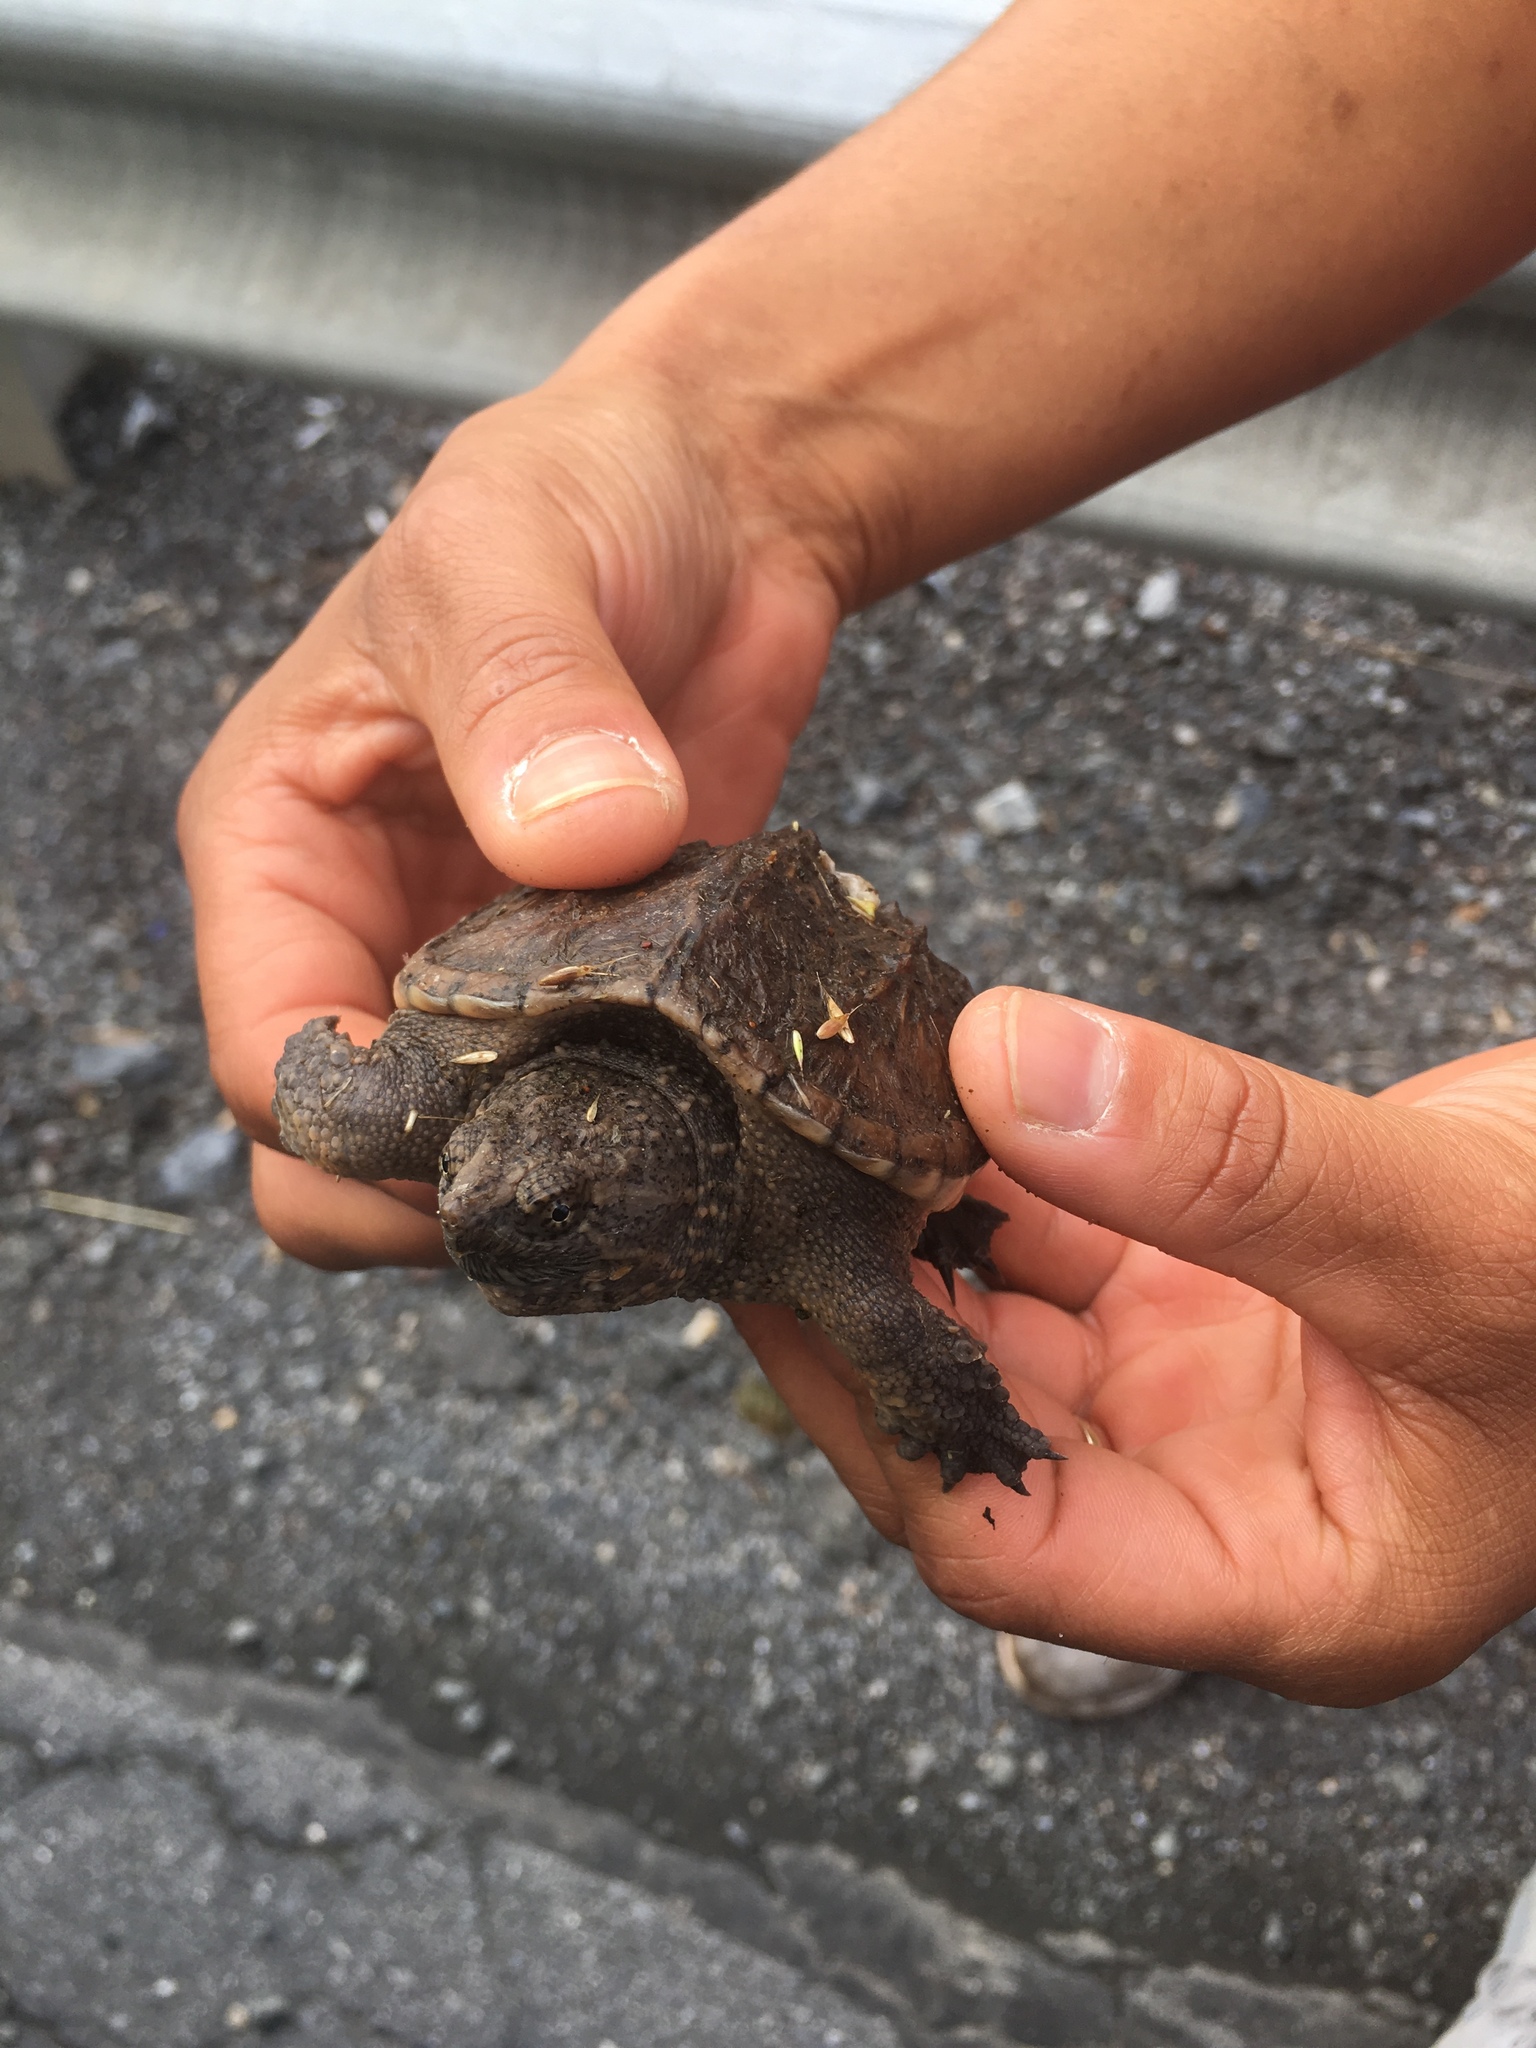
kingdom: Animalia
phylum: Chordata
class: Testudines
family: Chelydridae
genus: Chelydra
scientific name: Chelydra serpentina
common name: Common snapping turtle
